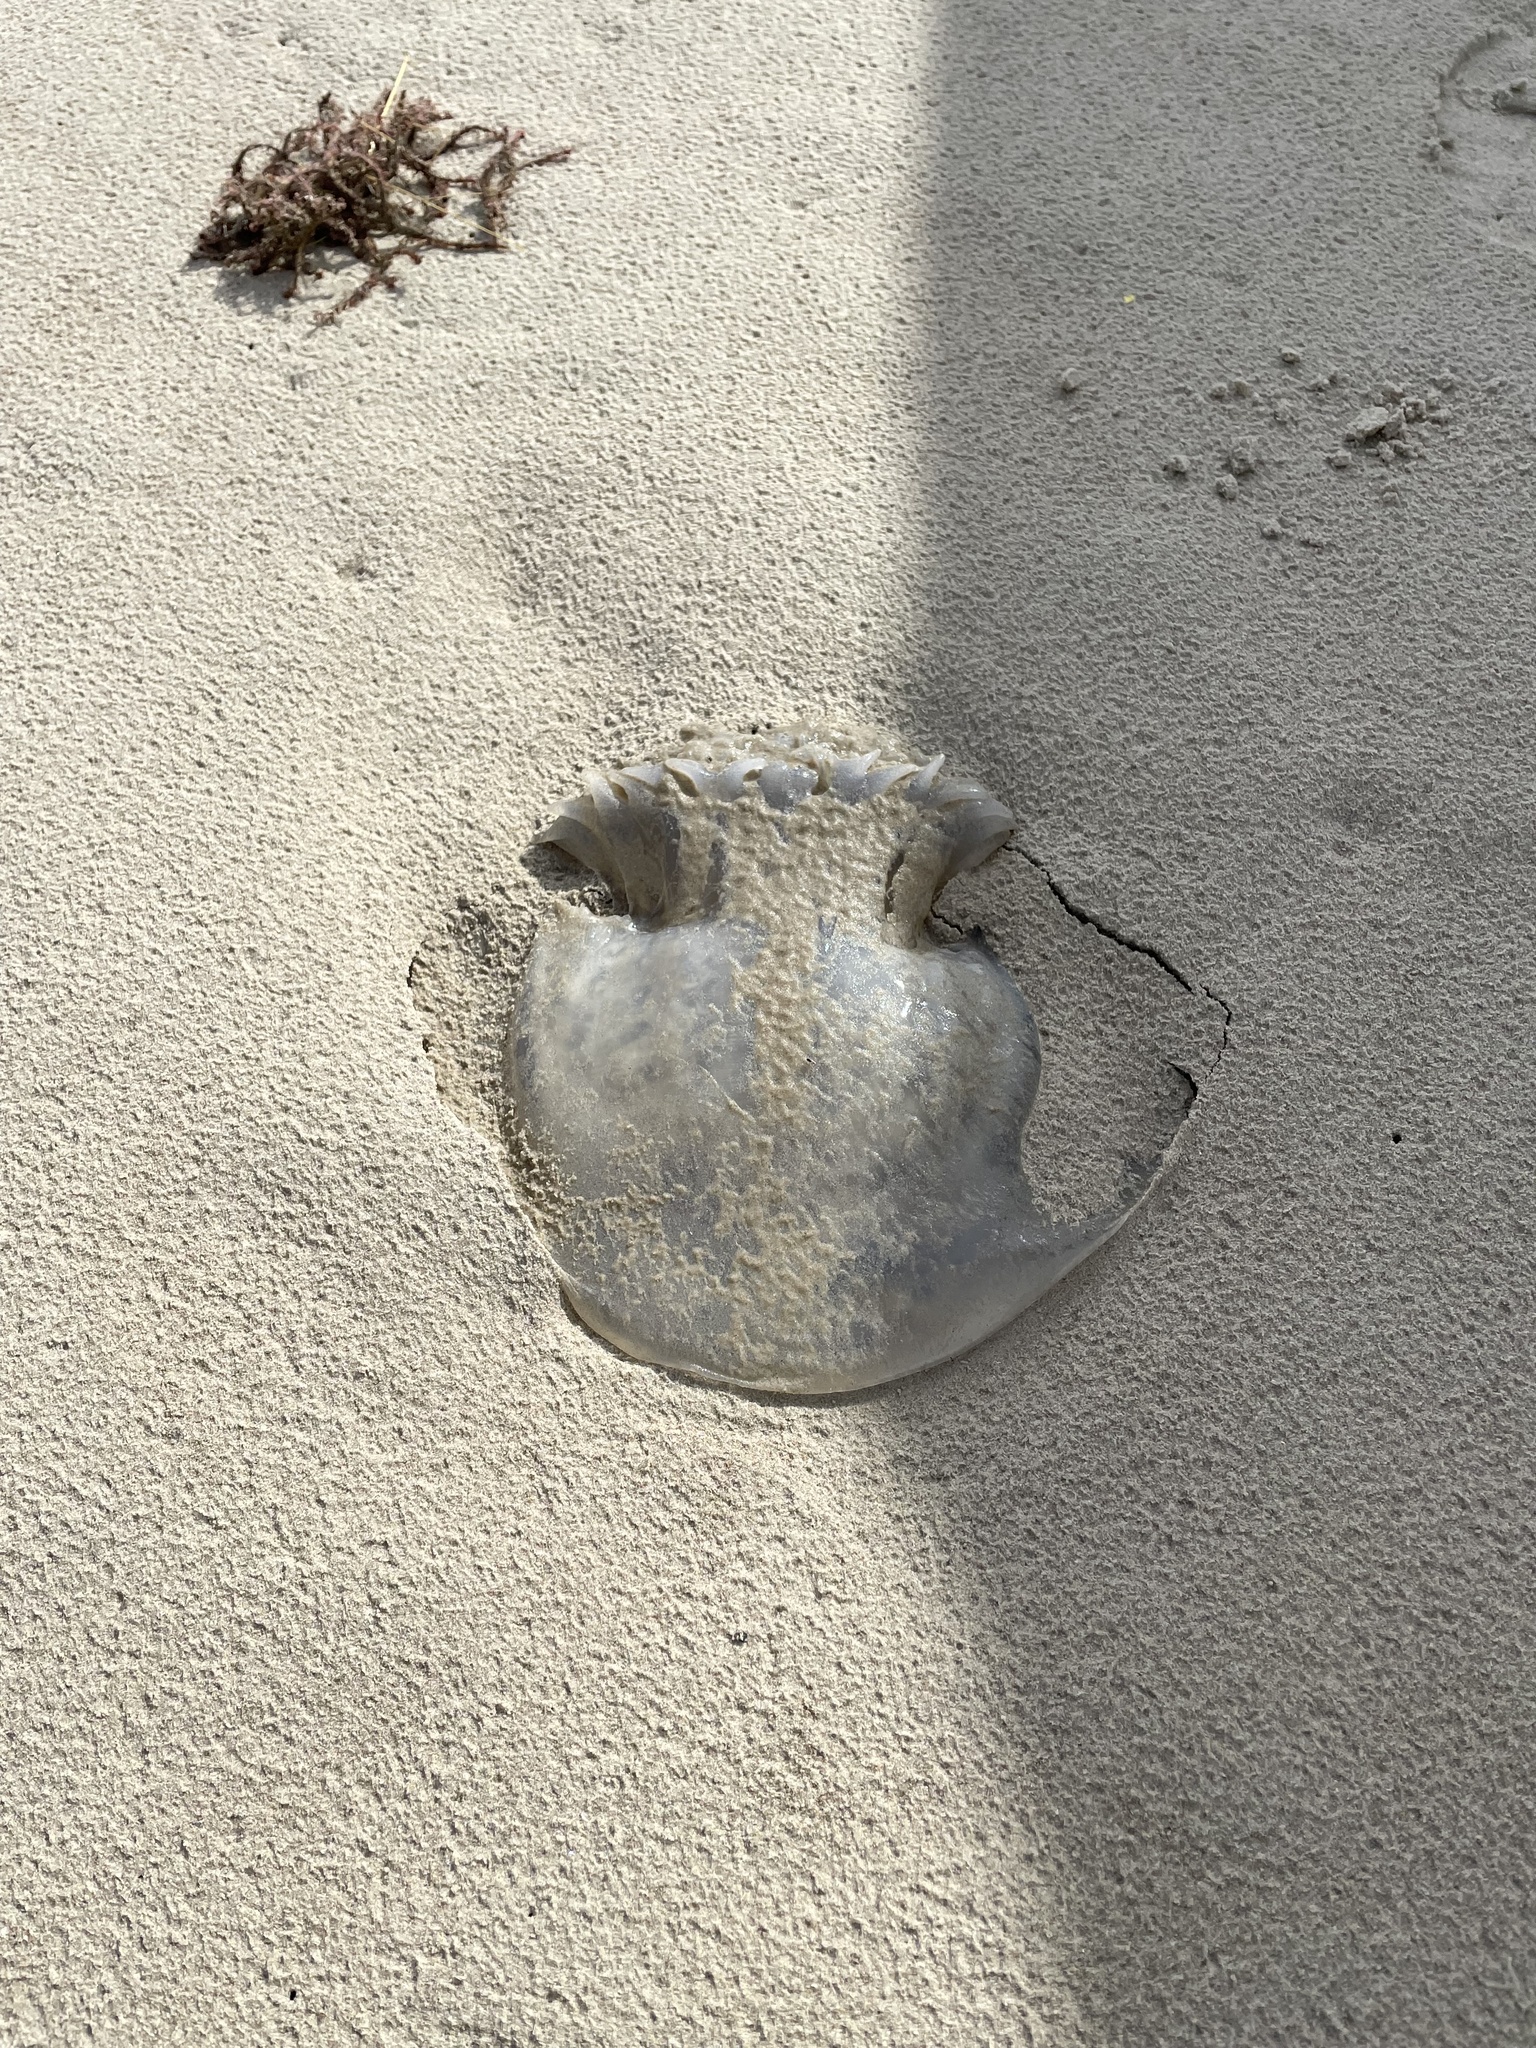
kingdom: Animalia
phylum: Cnidaria
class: Scyphozoa
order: Rhizostomeae
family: Stomolophidae
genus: Stomolophus
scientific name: Stomolophus meleagris
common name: Cabbagehead
